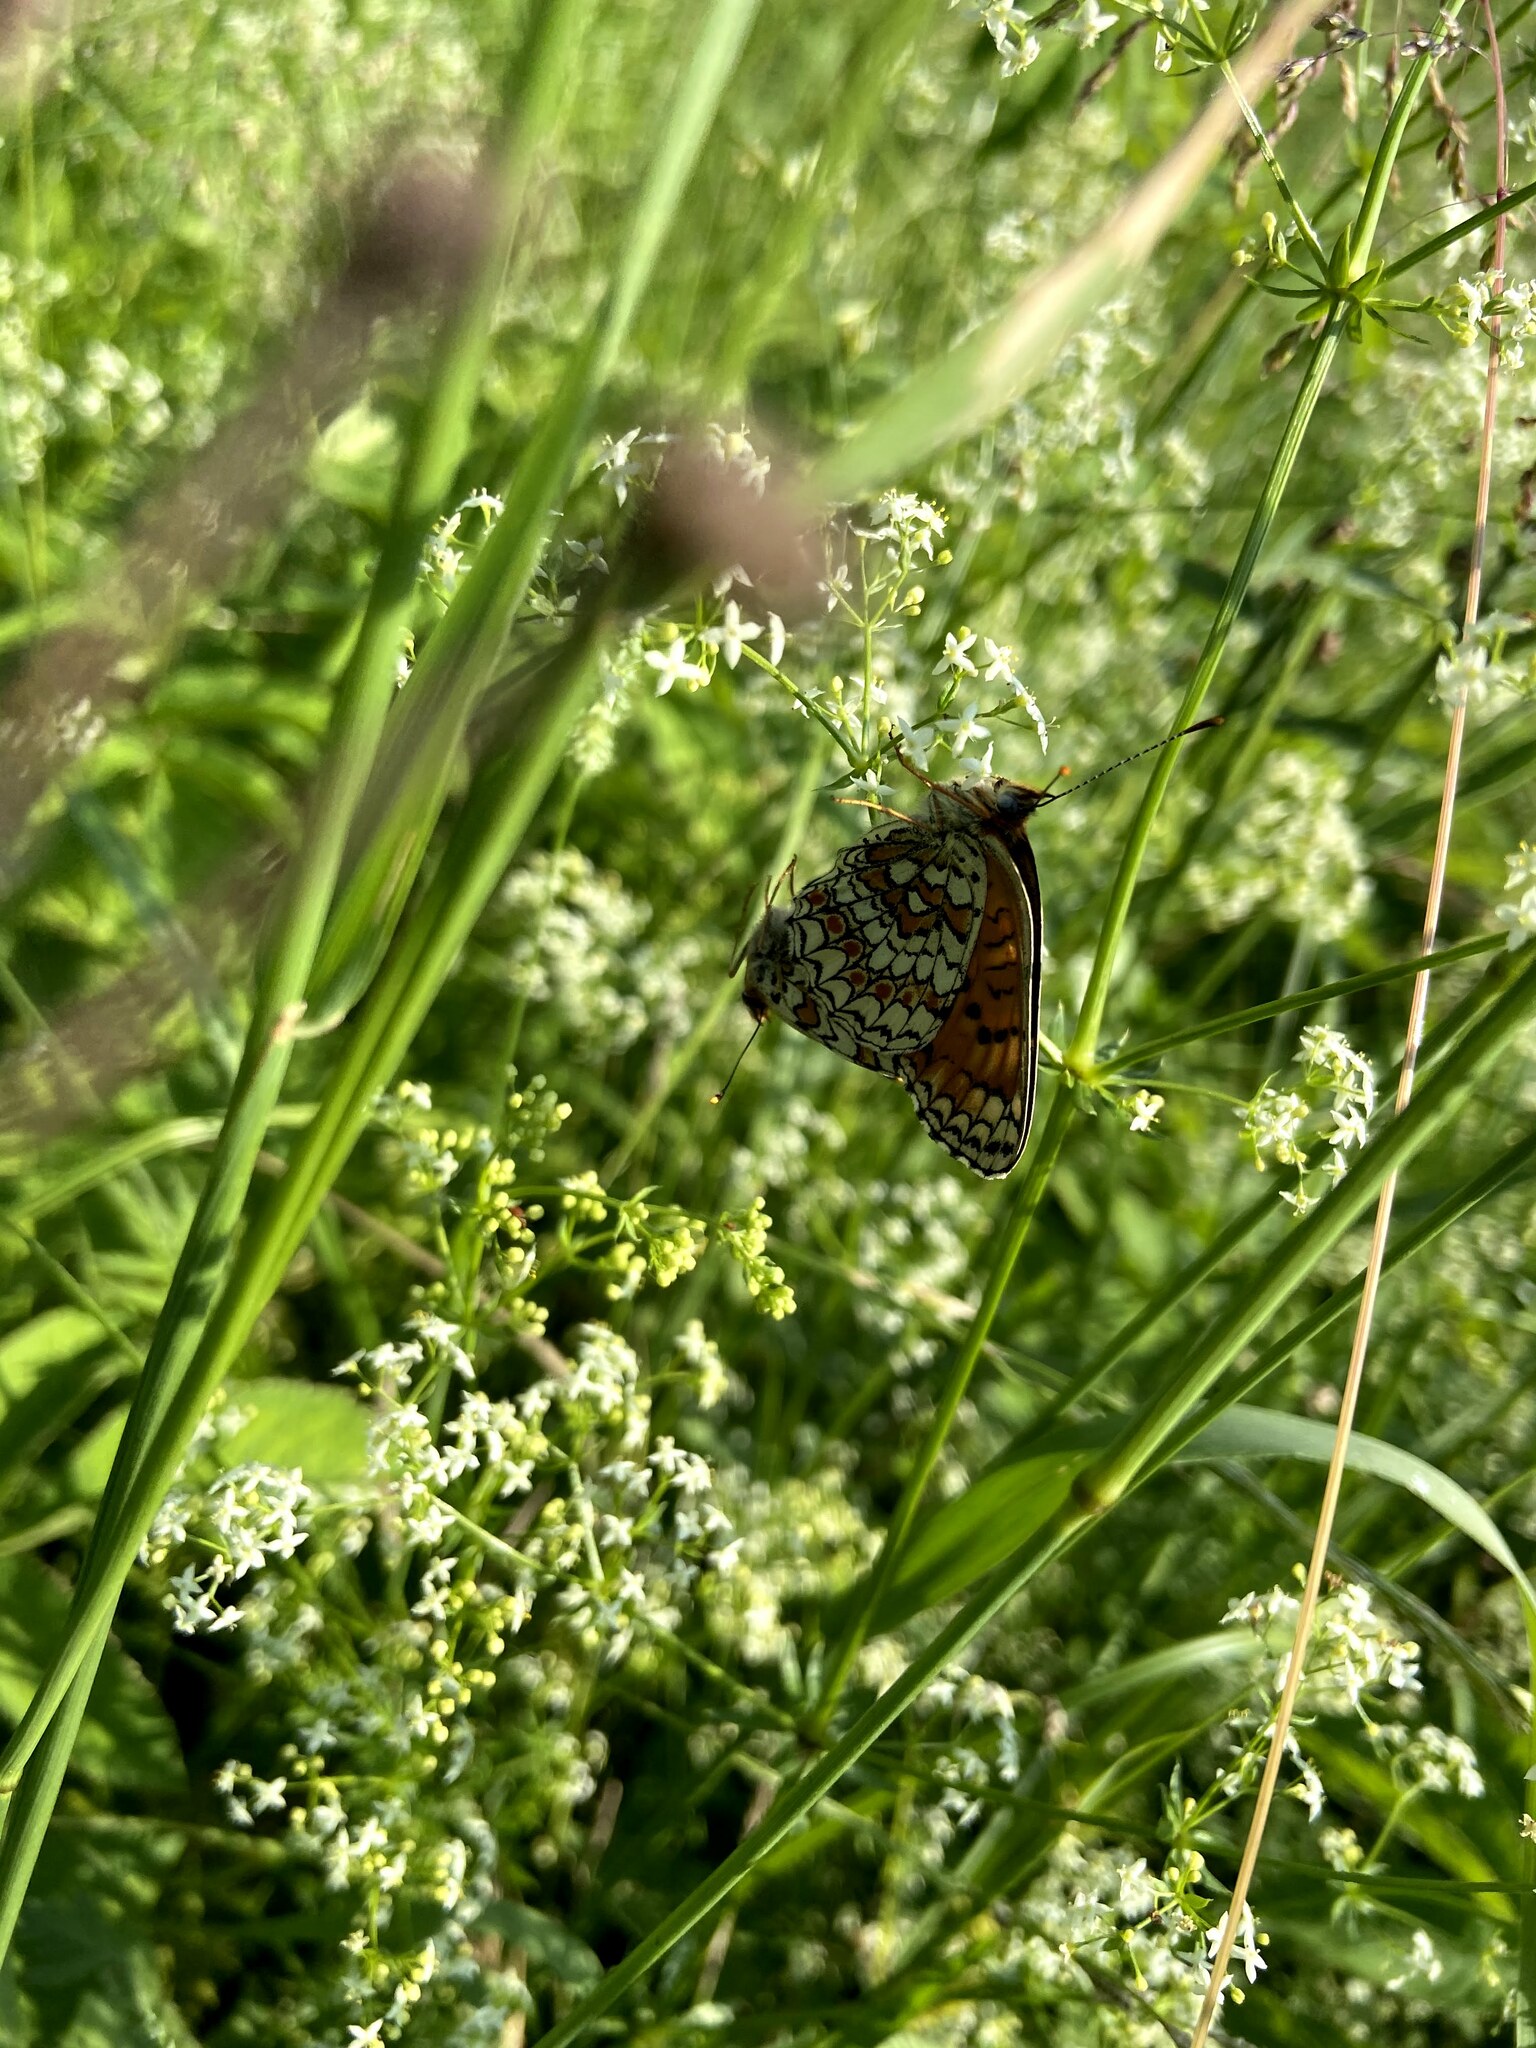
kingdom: Animalia
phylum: Arthropoda
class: Insecta
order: Lepidoptera
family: Nymphalidae
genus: Melitaea
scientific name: Melitaea phoebe
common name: Knapweed fritillary
